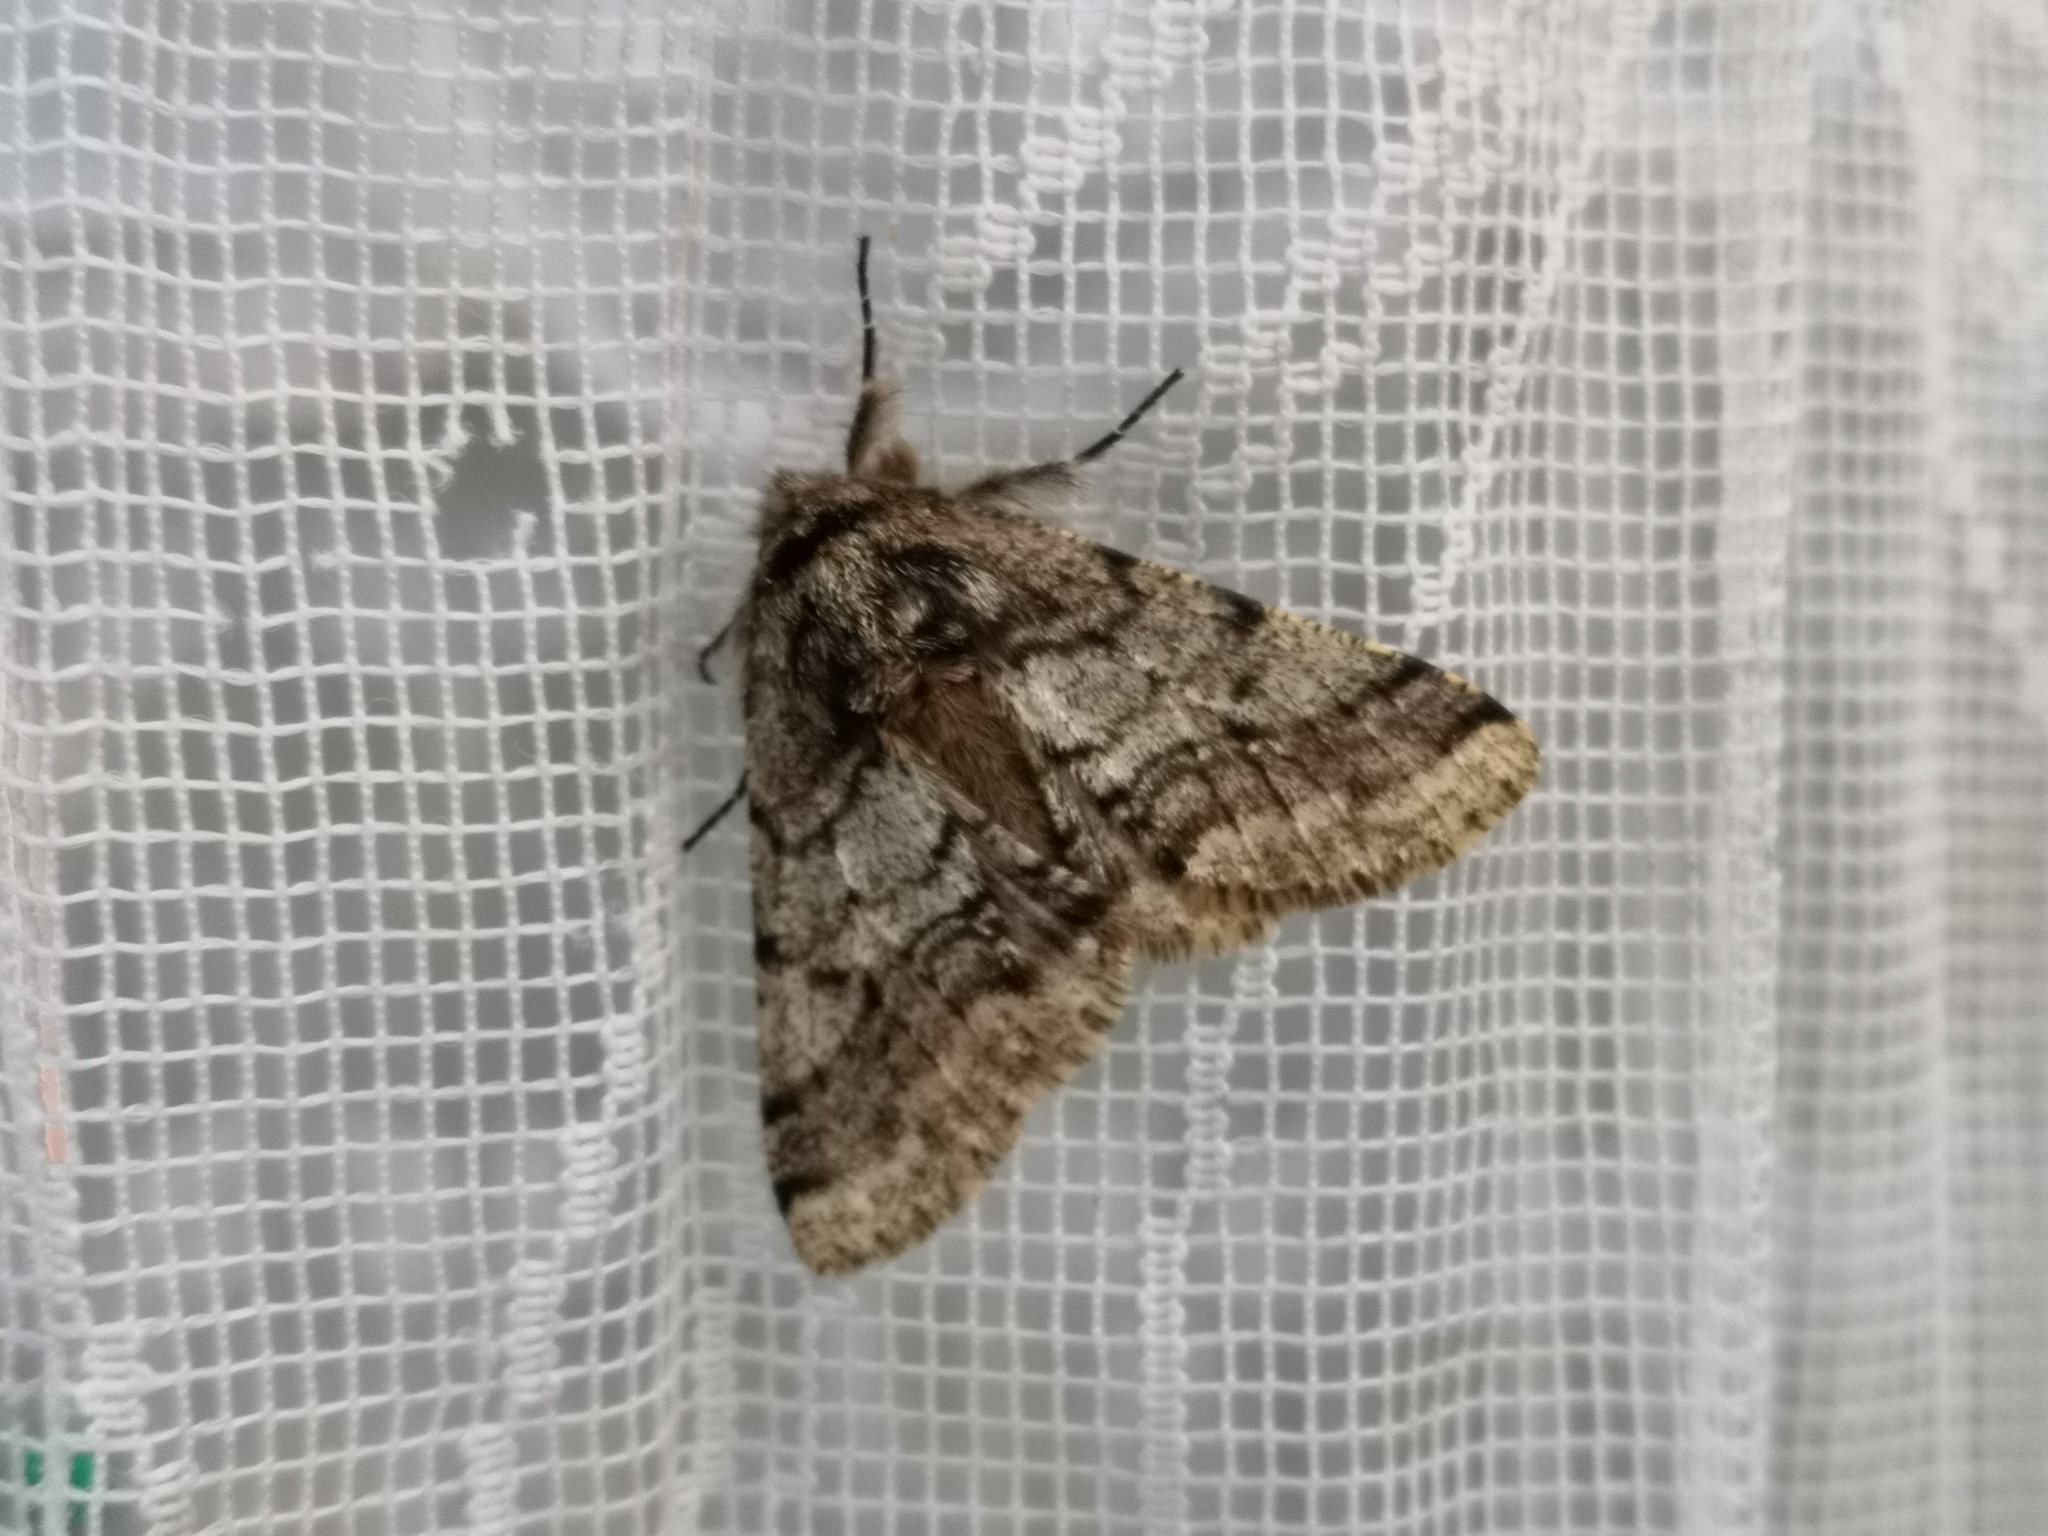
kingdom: Animalia
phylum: Arthropoda
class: Insecta
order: Lepidoptera
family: Geometridae
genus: Lycia
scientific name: Lycia hirtaria
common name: Brindled beauty
